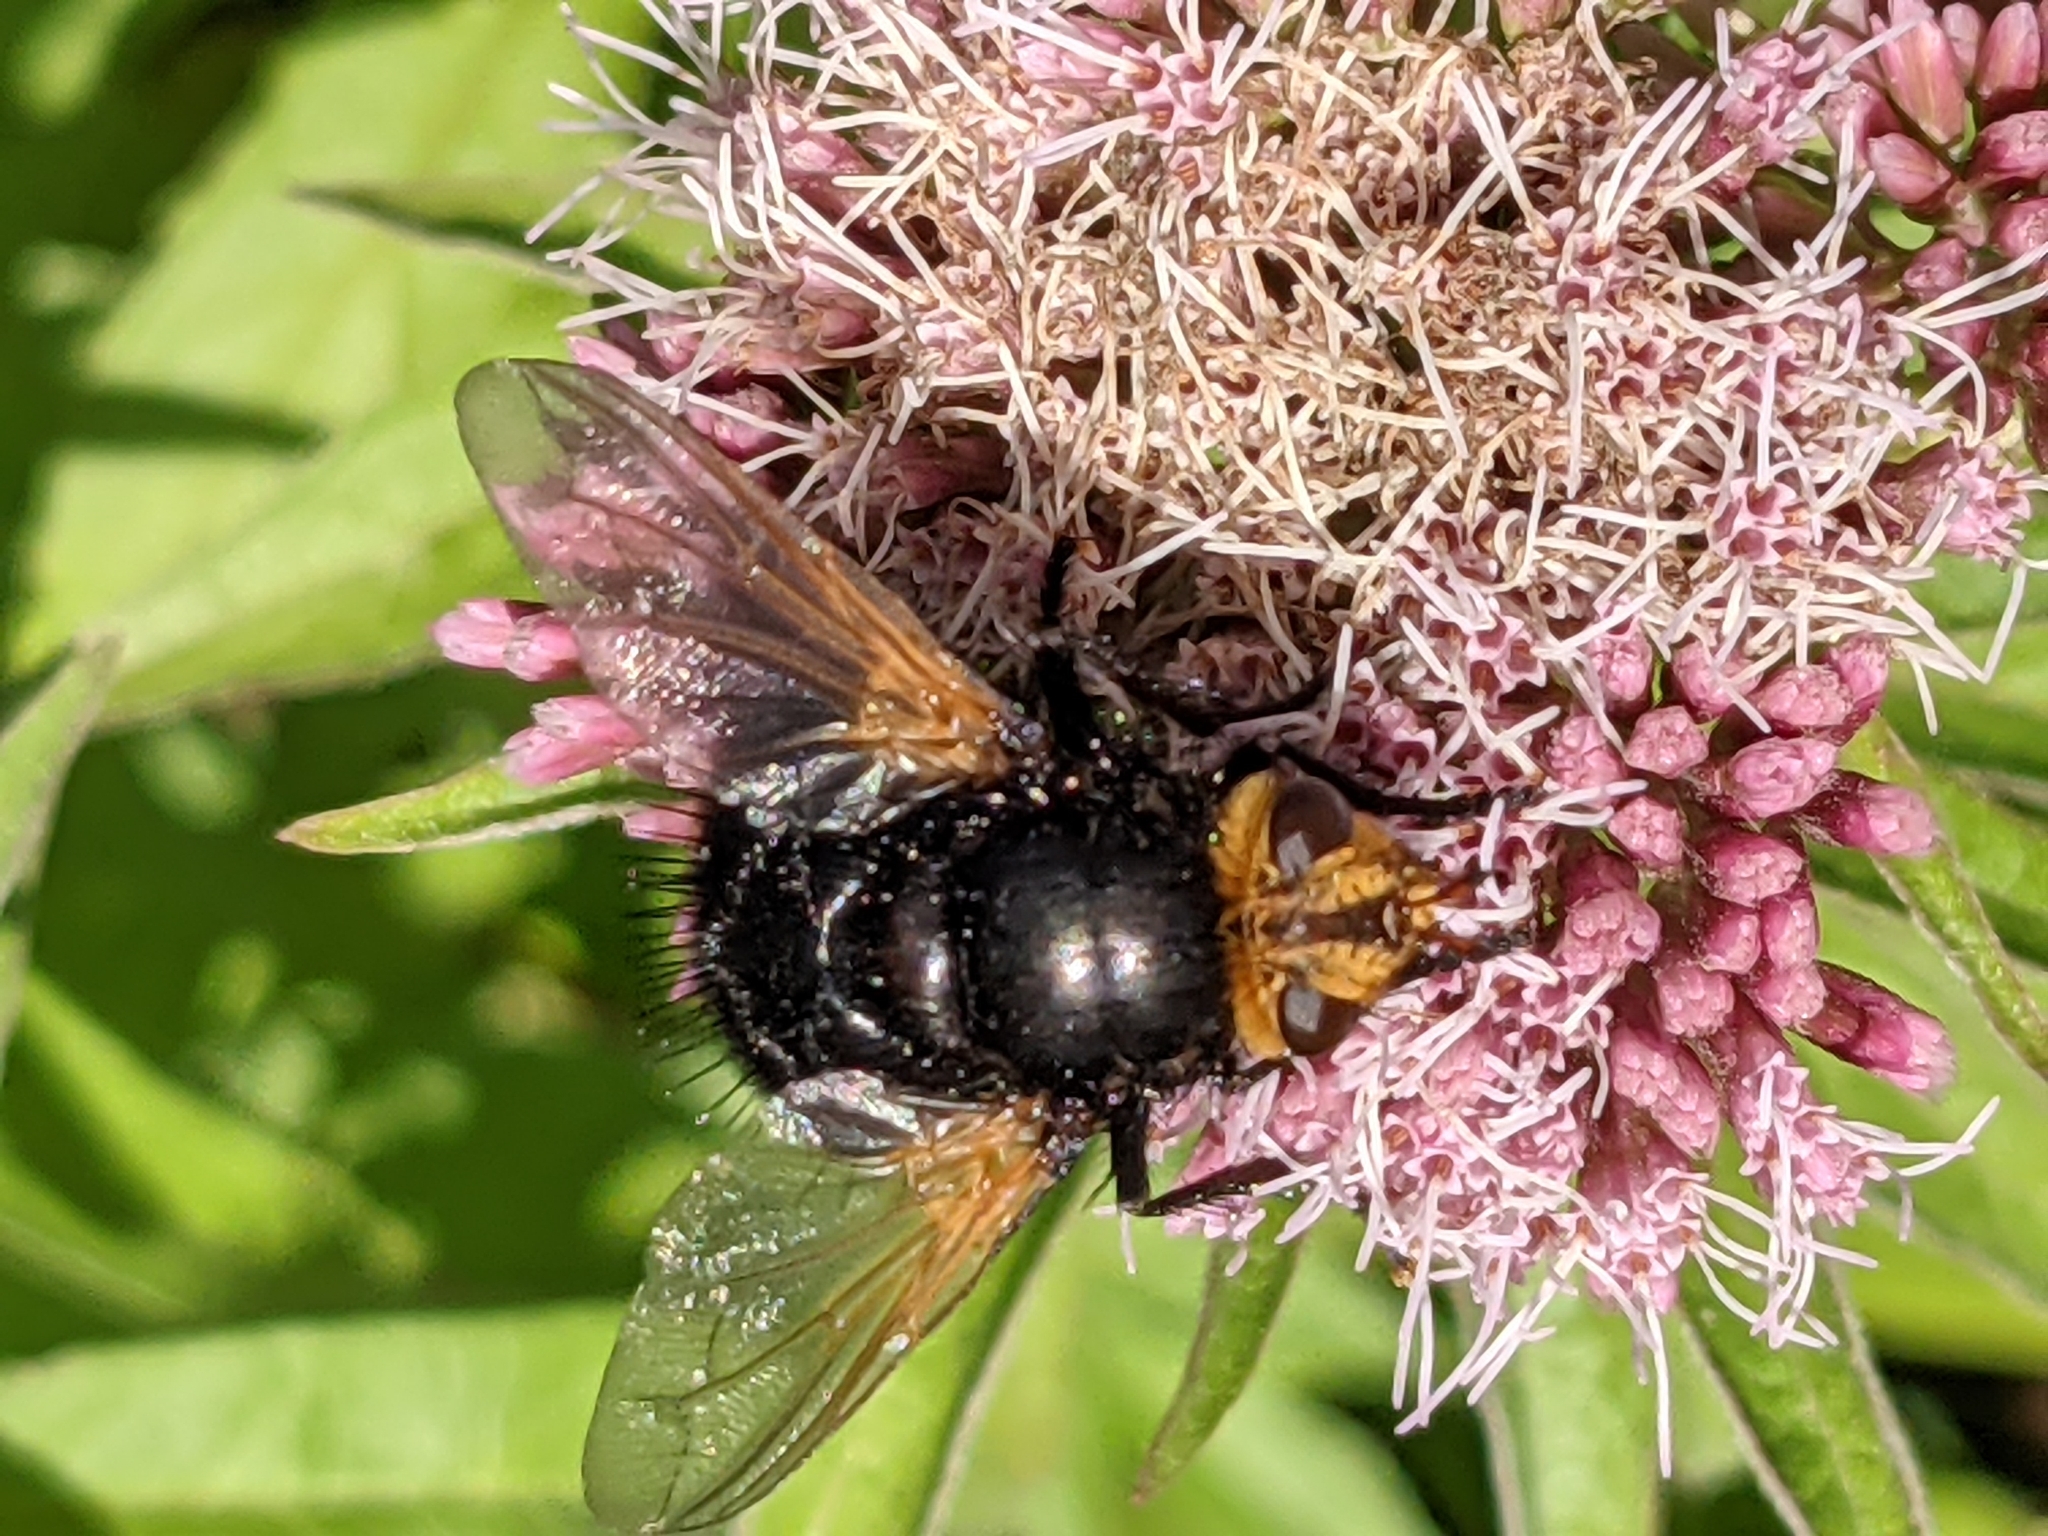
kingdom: Animalia
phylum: Arthropoda
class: Insecta
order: Diptera
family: Tachinidae
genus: Tachina
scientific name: Tachina grossa
